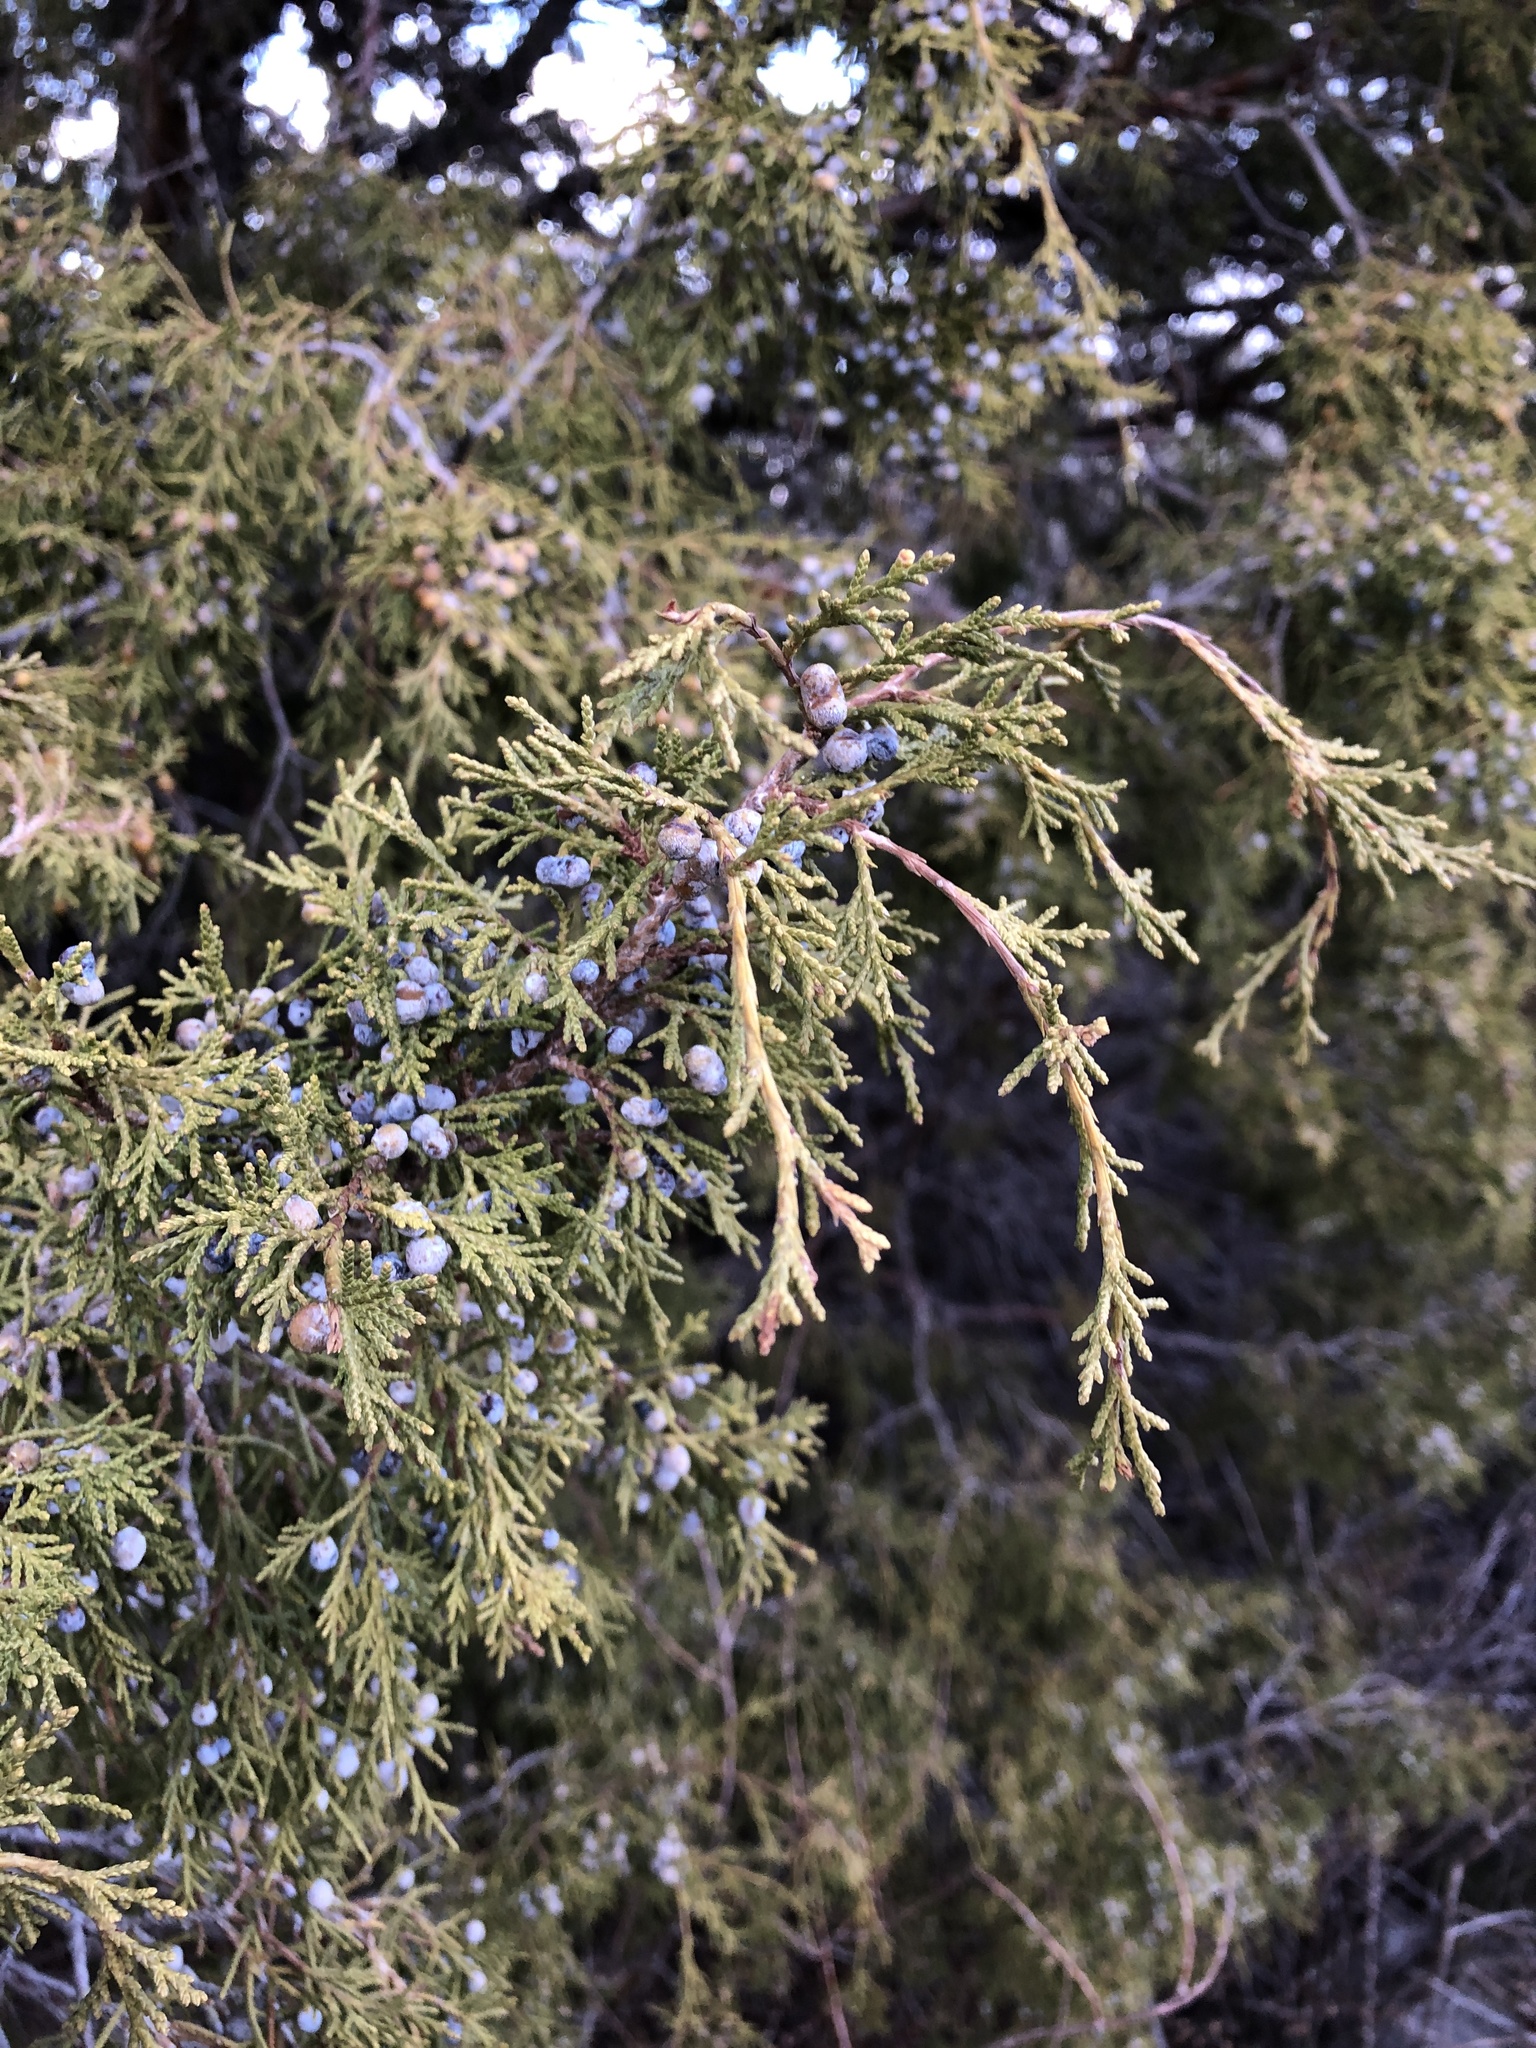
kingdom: Plantae
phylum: Tracheophyta
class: Pinopsida
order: Pinales
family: Cupressaceae
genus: Juniperus
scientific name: Juniperus scopulorum
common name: Rocky mountain juniper
